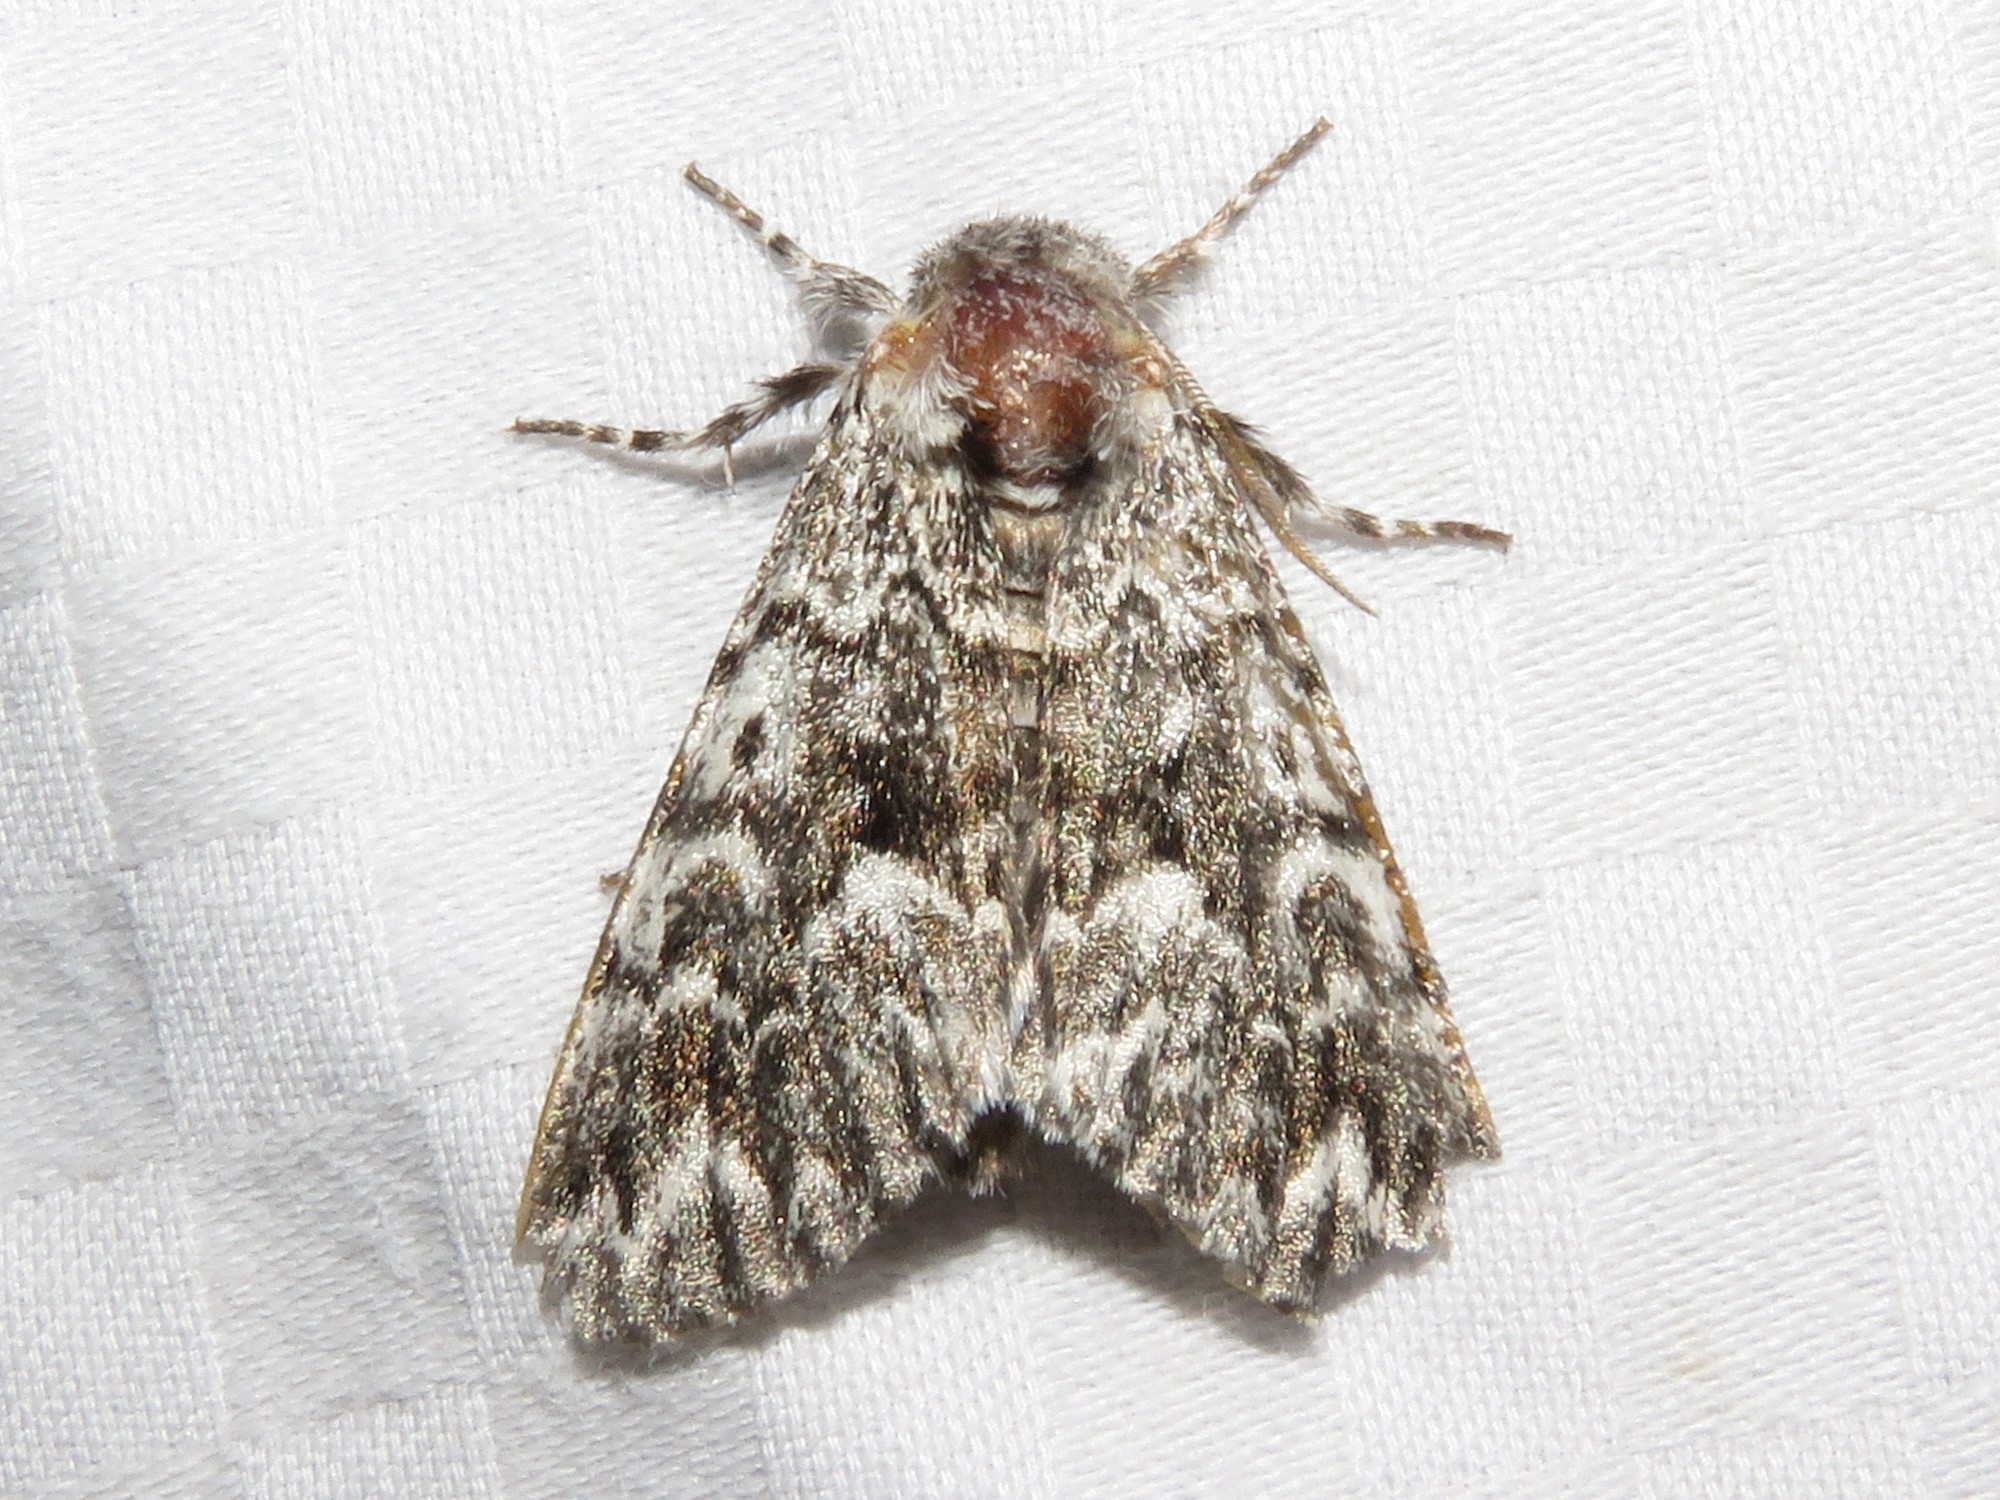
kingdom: Animalia
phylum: Arthropoda
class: Insecta
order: Lepidoptera
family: Noctuidae
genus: Panthea
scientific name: Panthea acronyctoides
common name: Black zigzag moth
